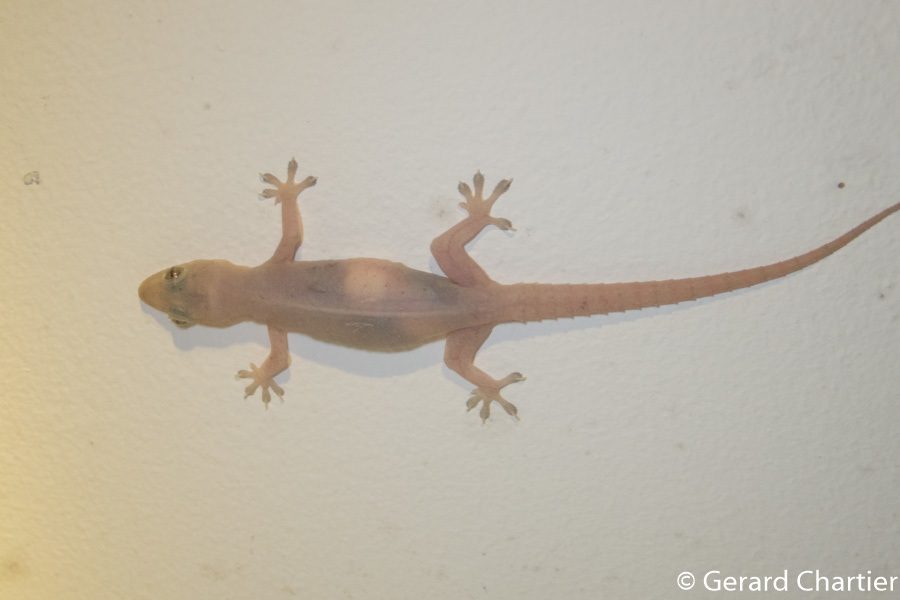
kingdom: Animalia
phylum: Chordata
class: Squamata
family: Gekkonidae
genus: Hemidactylus
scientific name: Hemidactylus frenatus
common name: Common house gecko
